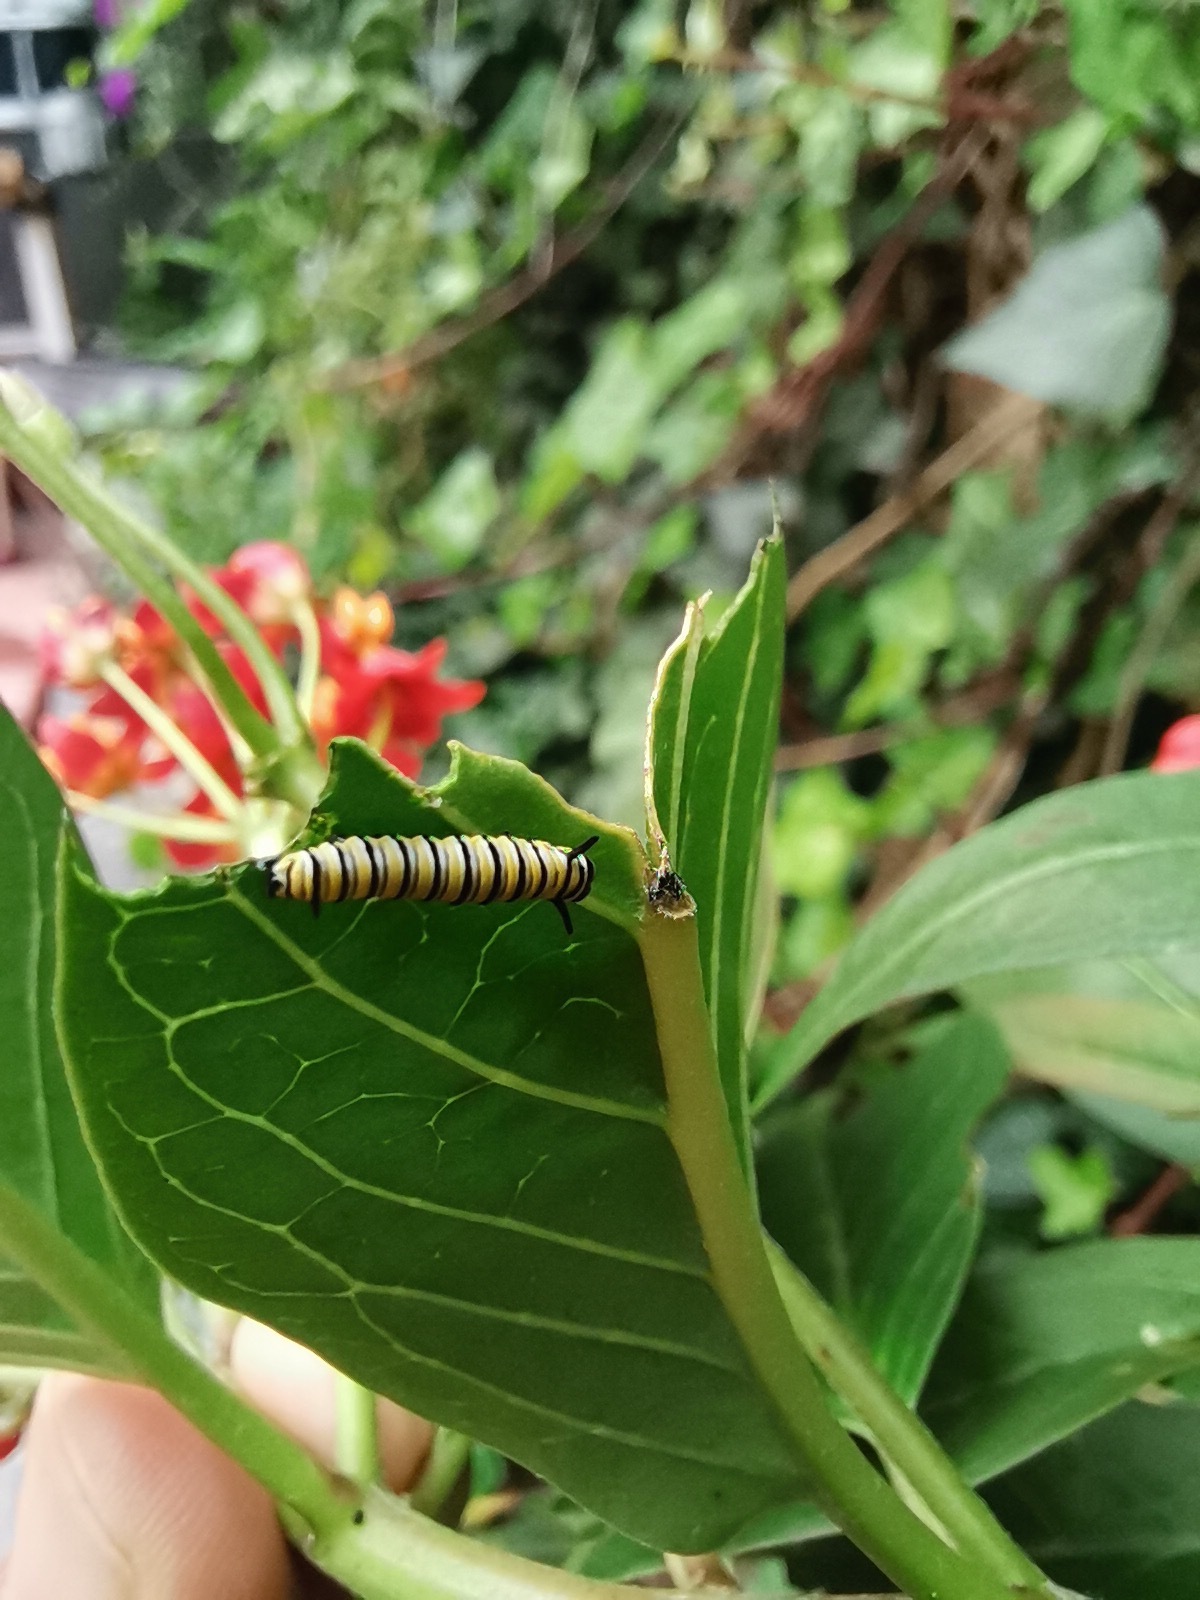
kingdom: Animalia
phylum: Arthropoda
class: Insecta
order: Lepidoptera
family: Nymphalidae
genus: Danaus
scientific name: Danaus plexippus
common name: Monarch
